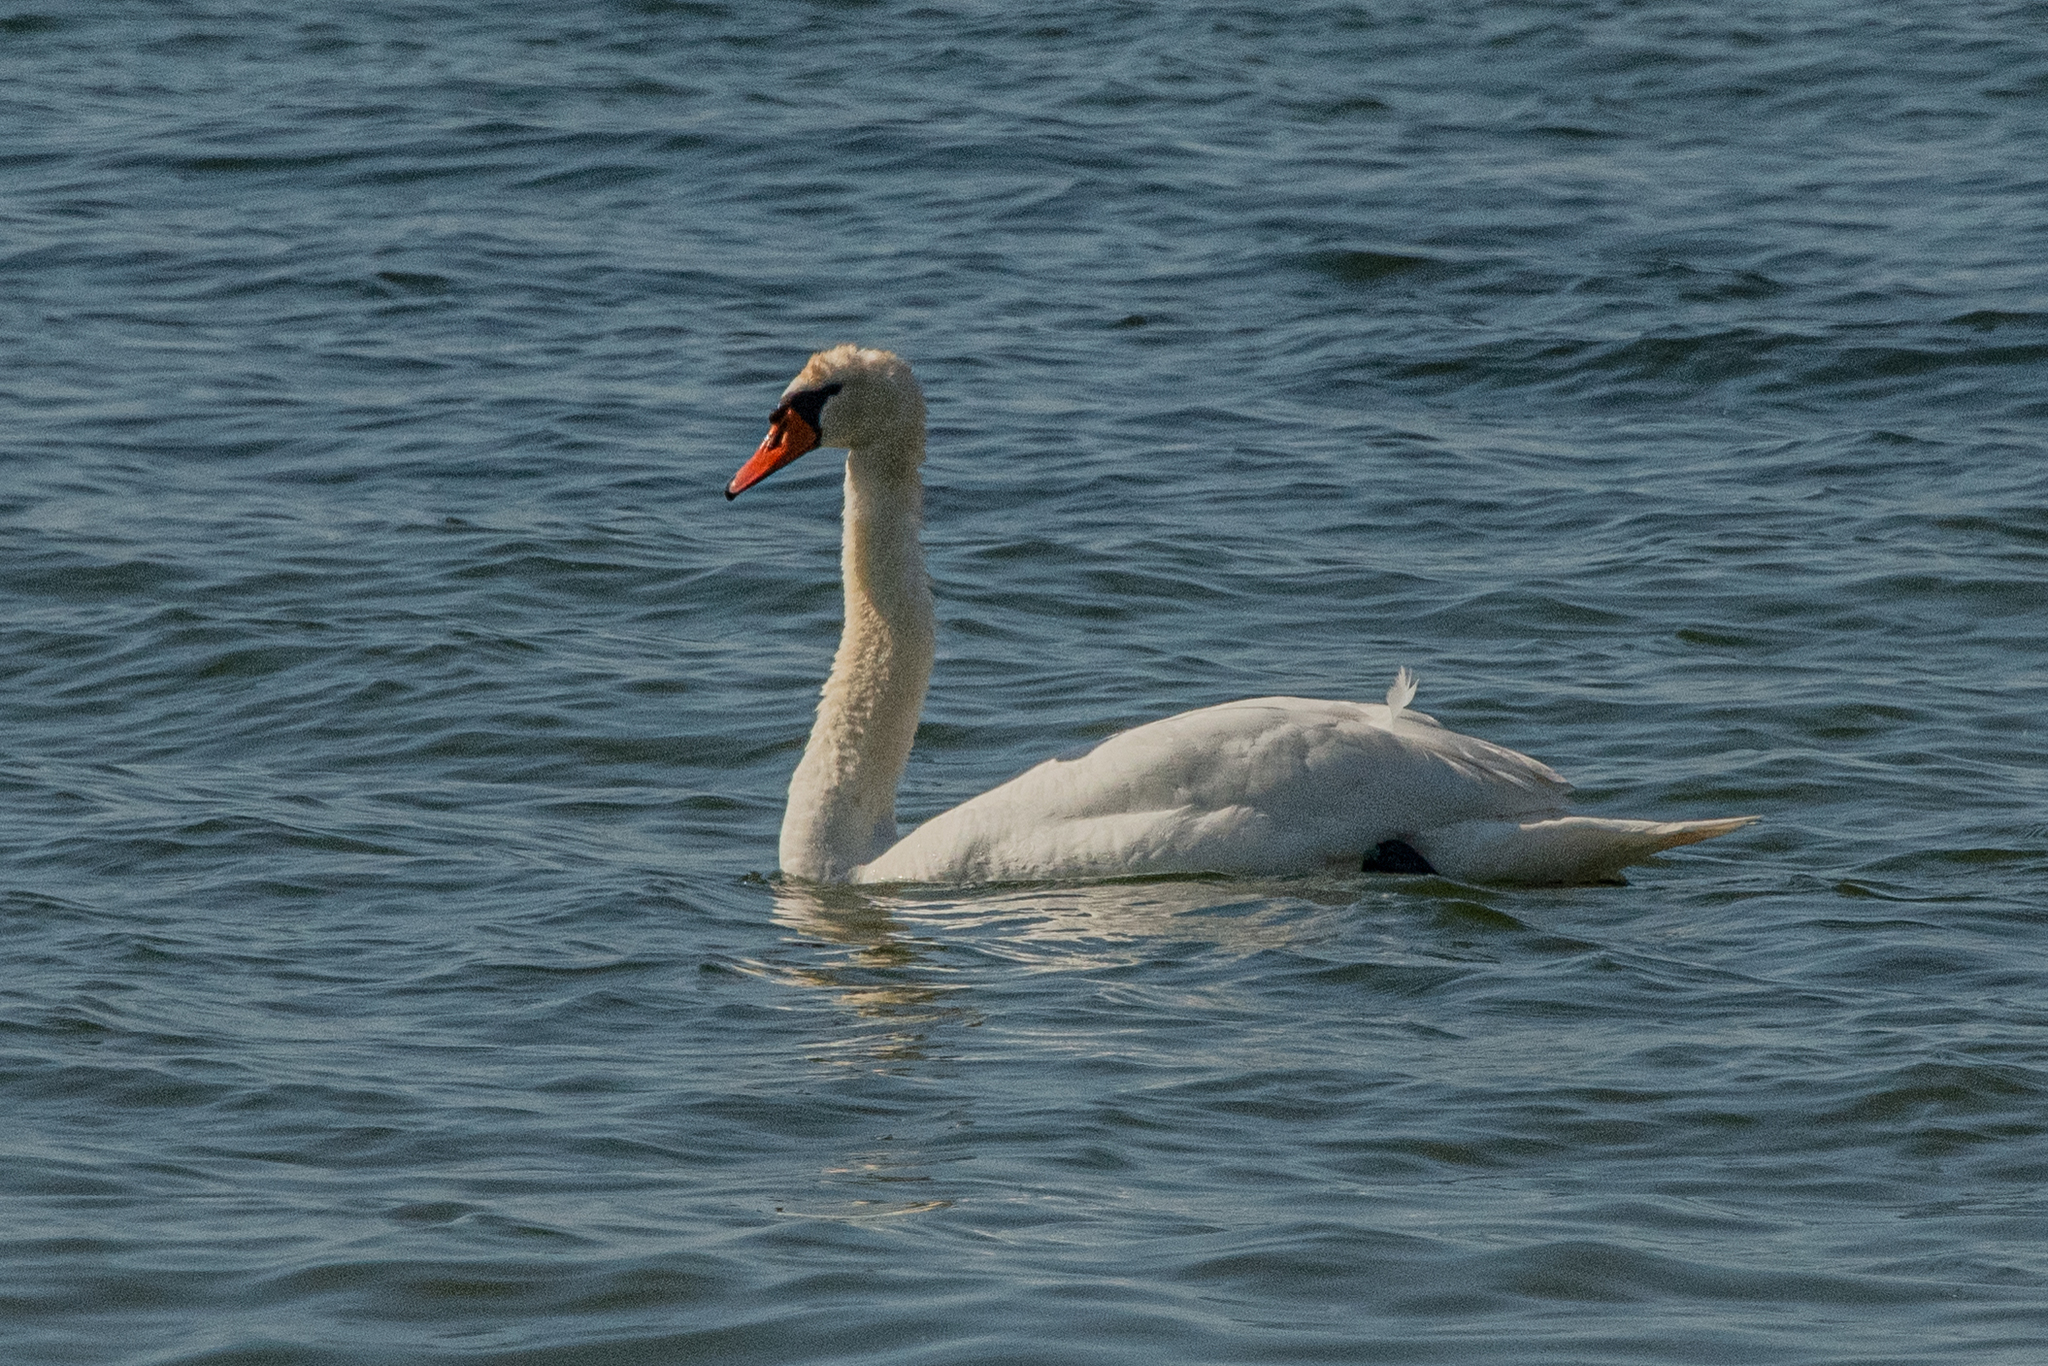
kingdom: Animalia
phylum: Chordata
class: Aves
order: Anseriformes
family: Anatidae
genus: Cygnus
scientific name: Cygnus olor
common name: Mute swan
